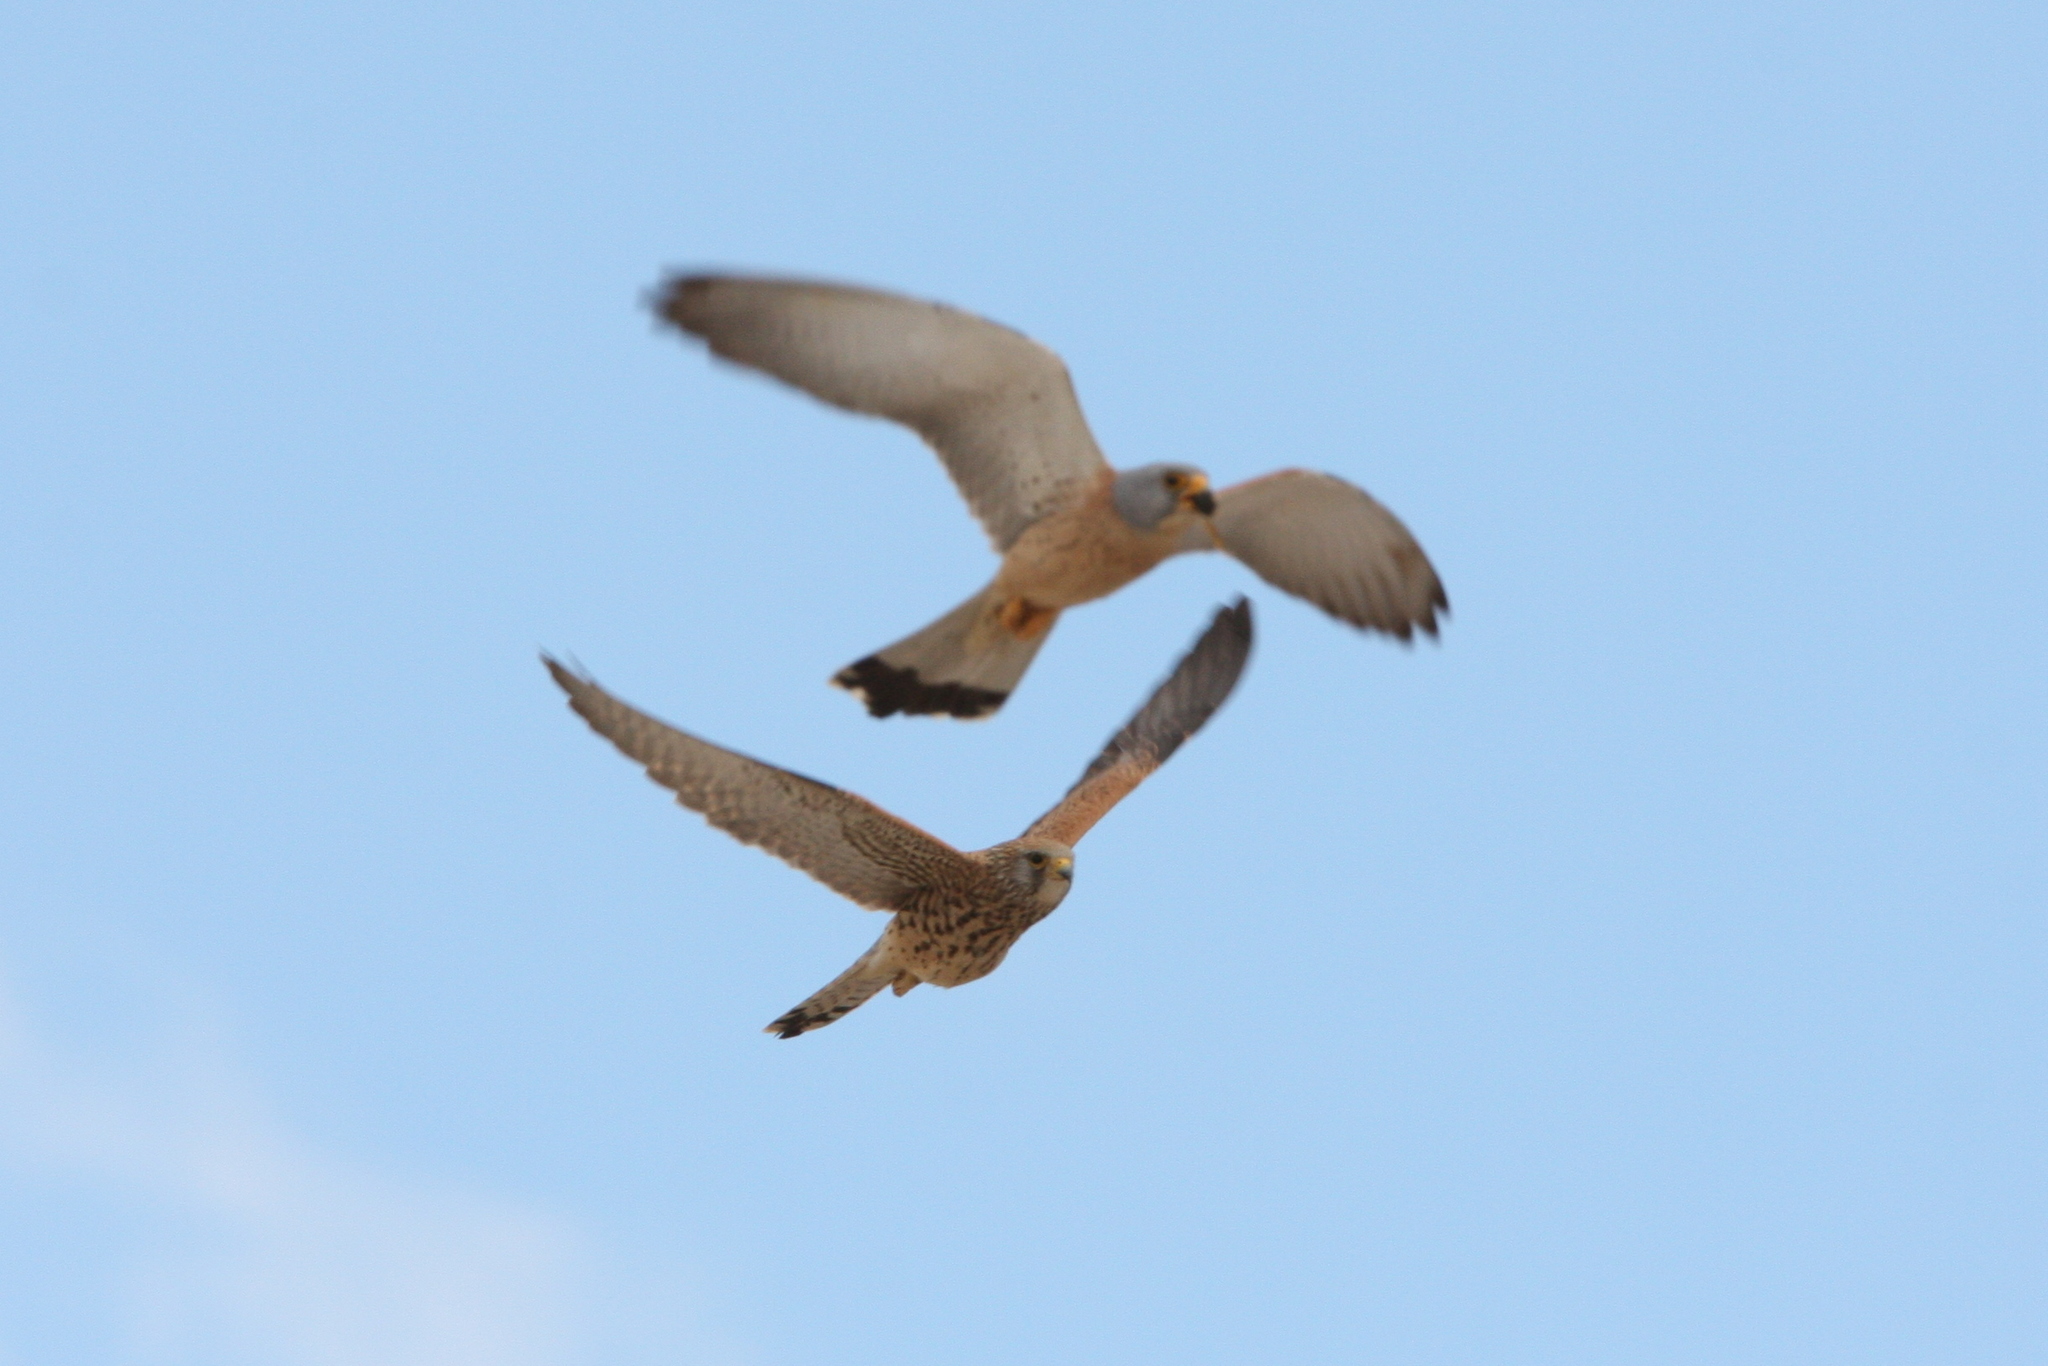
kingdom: Animalia
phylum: Chordata
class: Aves
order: Falconiformes
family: Falconidae
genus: Falco
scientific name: Falco naumanni
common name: Lesser kestrel
